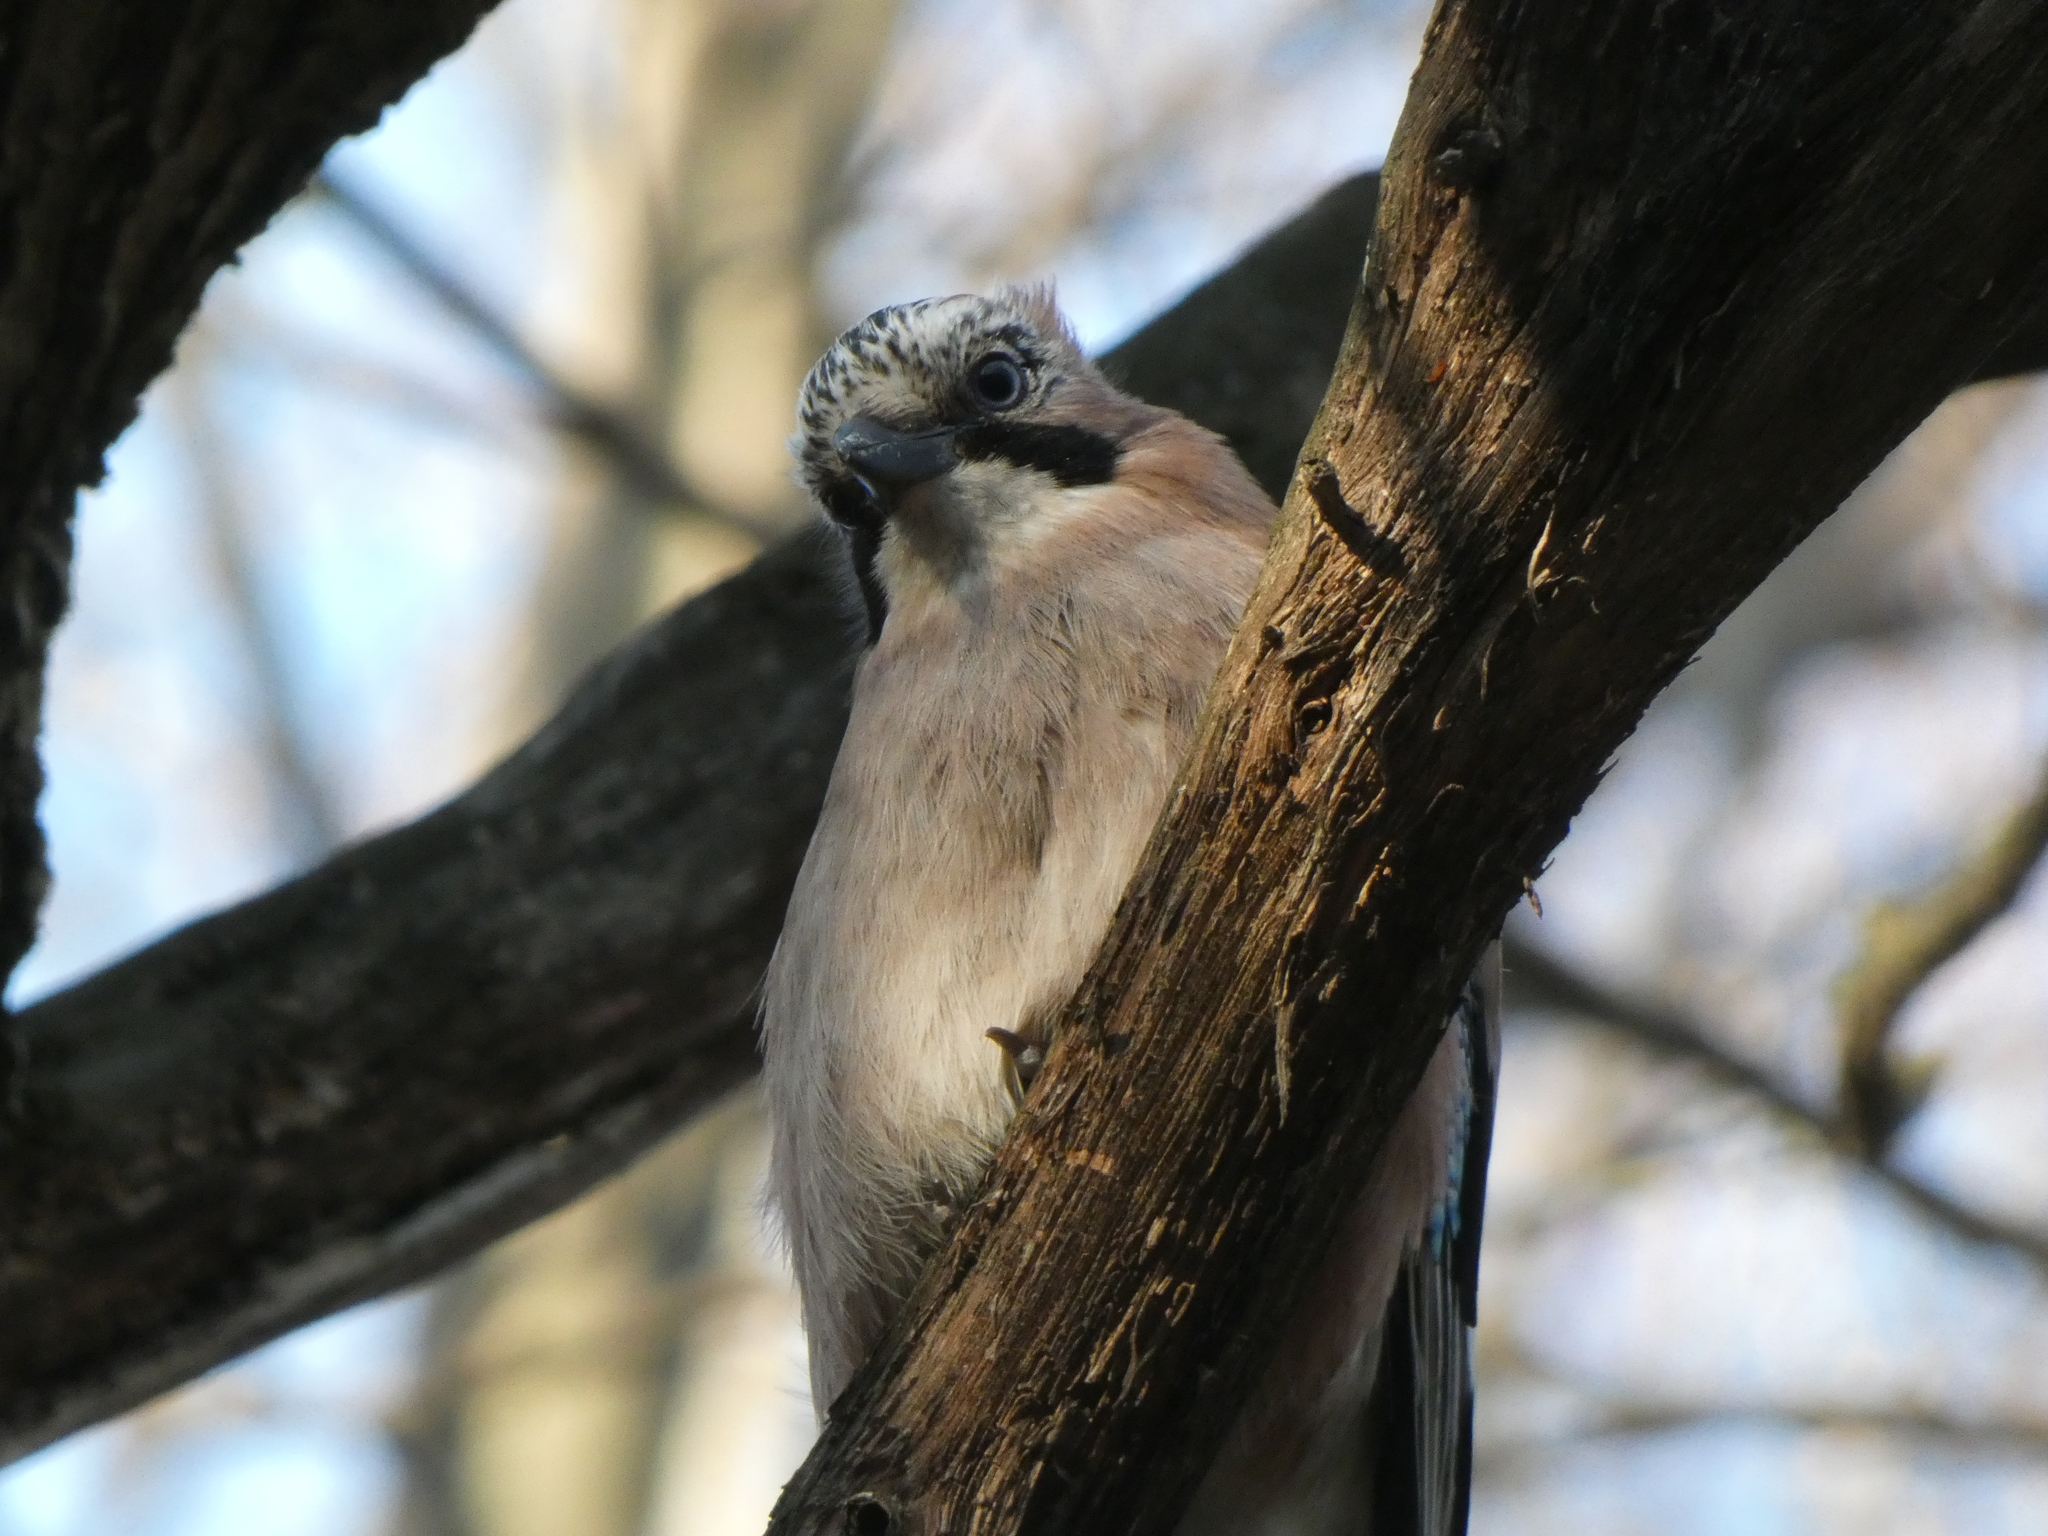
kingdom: Animalia
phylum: Chordata
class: Aves
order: Passeriformes
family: Corvidae
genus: Garrulus
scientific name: Garrulus glandarius
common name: Eurasian jay
